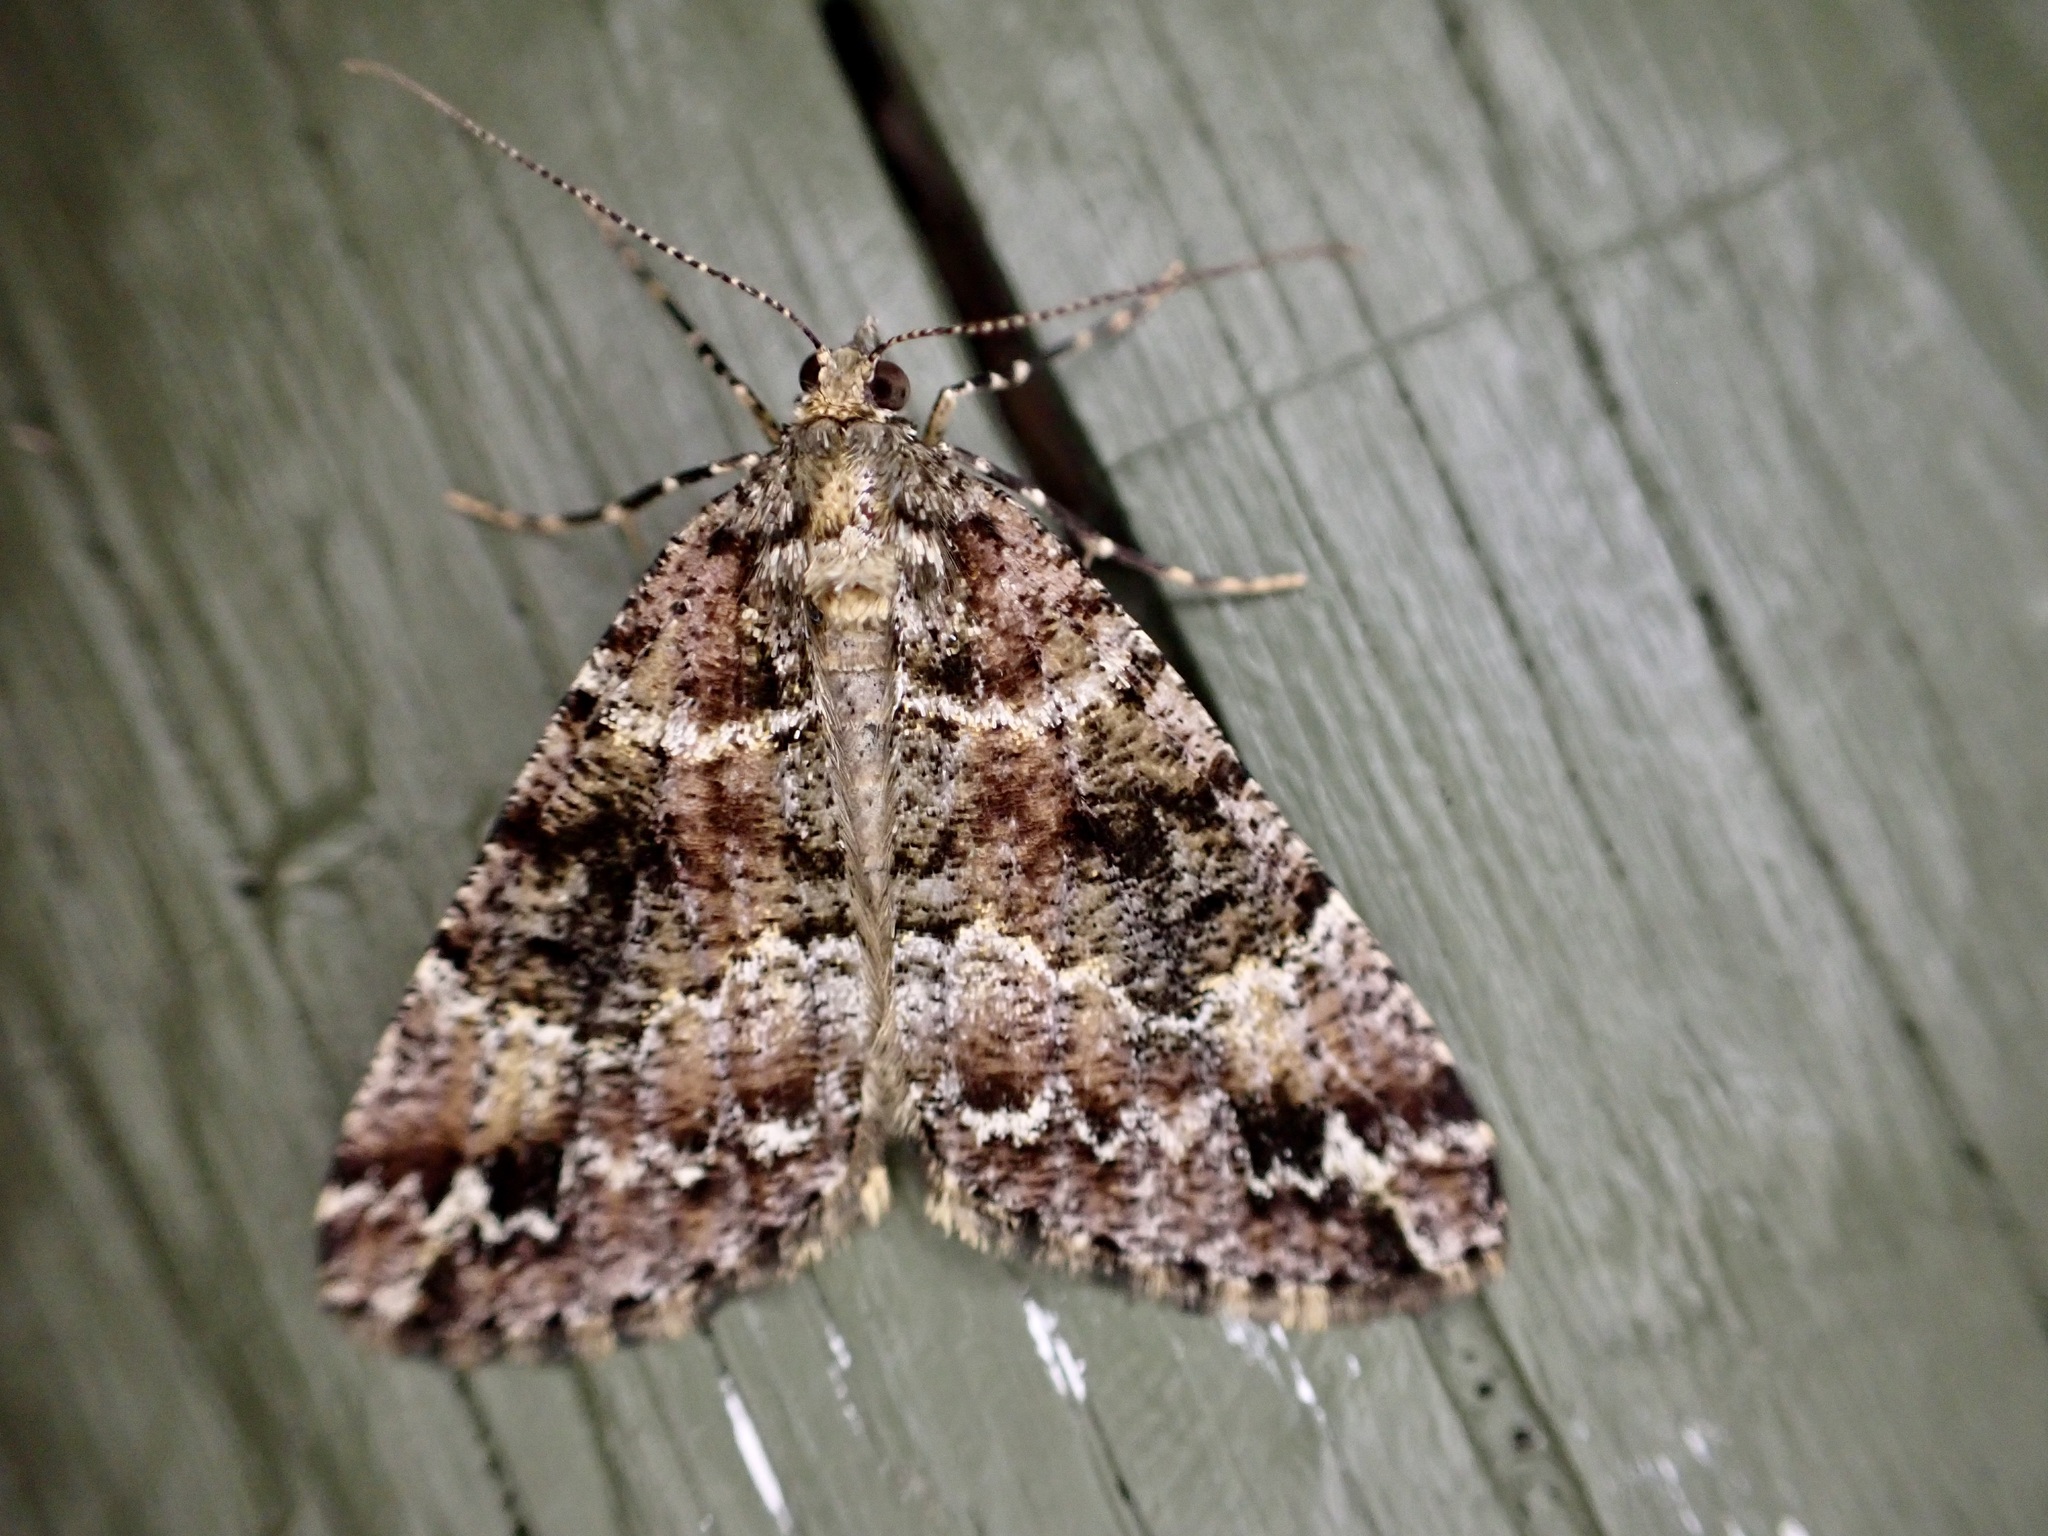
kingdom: Animalia
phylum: Arthropoda
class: Insecta
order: Lepidoptera
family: Geometridae
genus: Pseudocoremia
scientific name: Pseudocoremia productata
